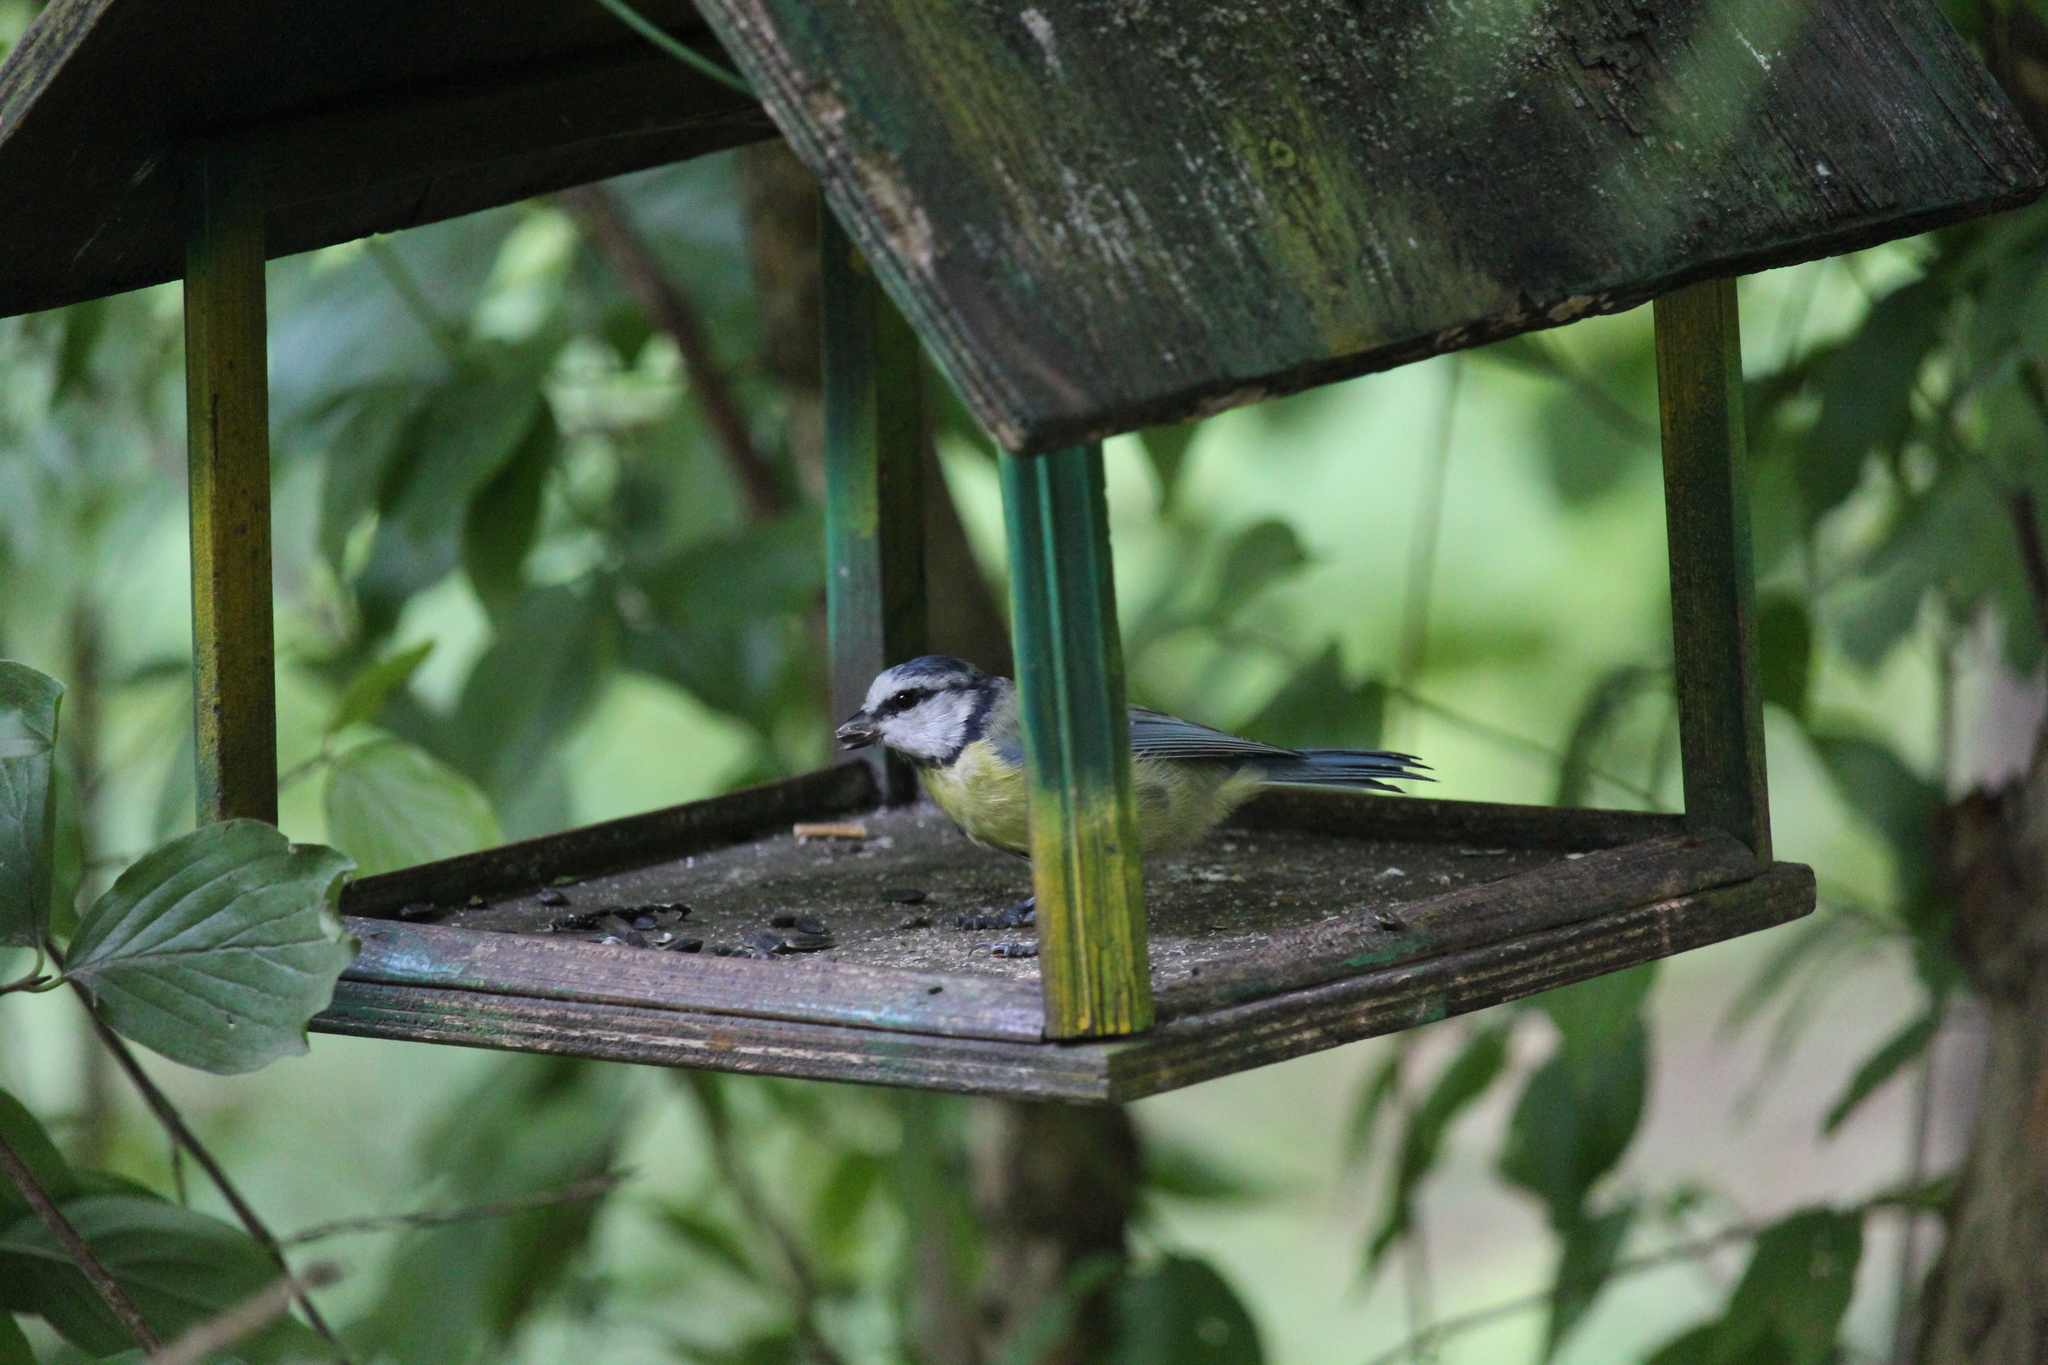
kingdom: Animalia
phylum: Chordata
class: Aves
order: Passeriformes
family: Paridae
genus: Cyanistes
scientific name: Cyanistes caeruleus
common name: Eurasian blue tit
